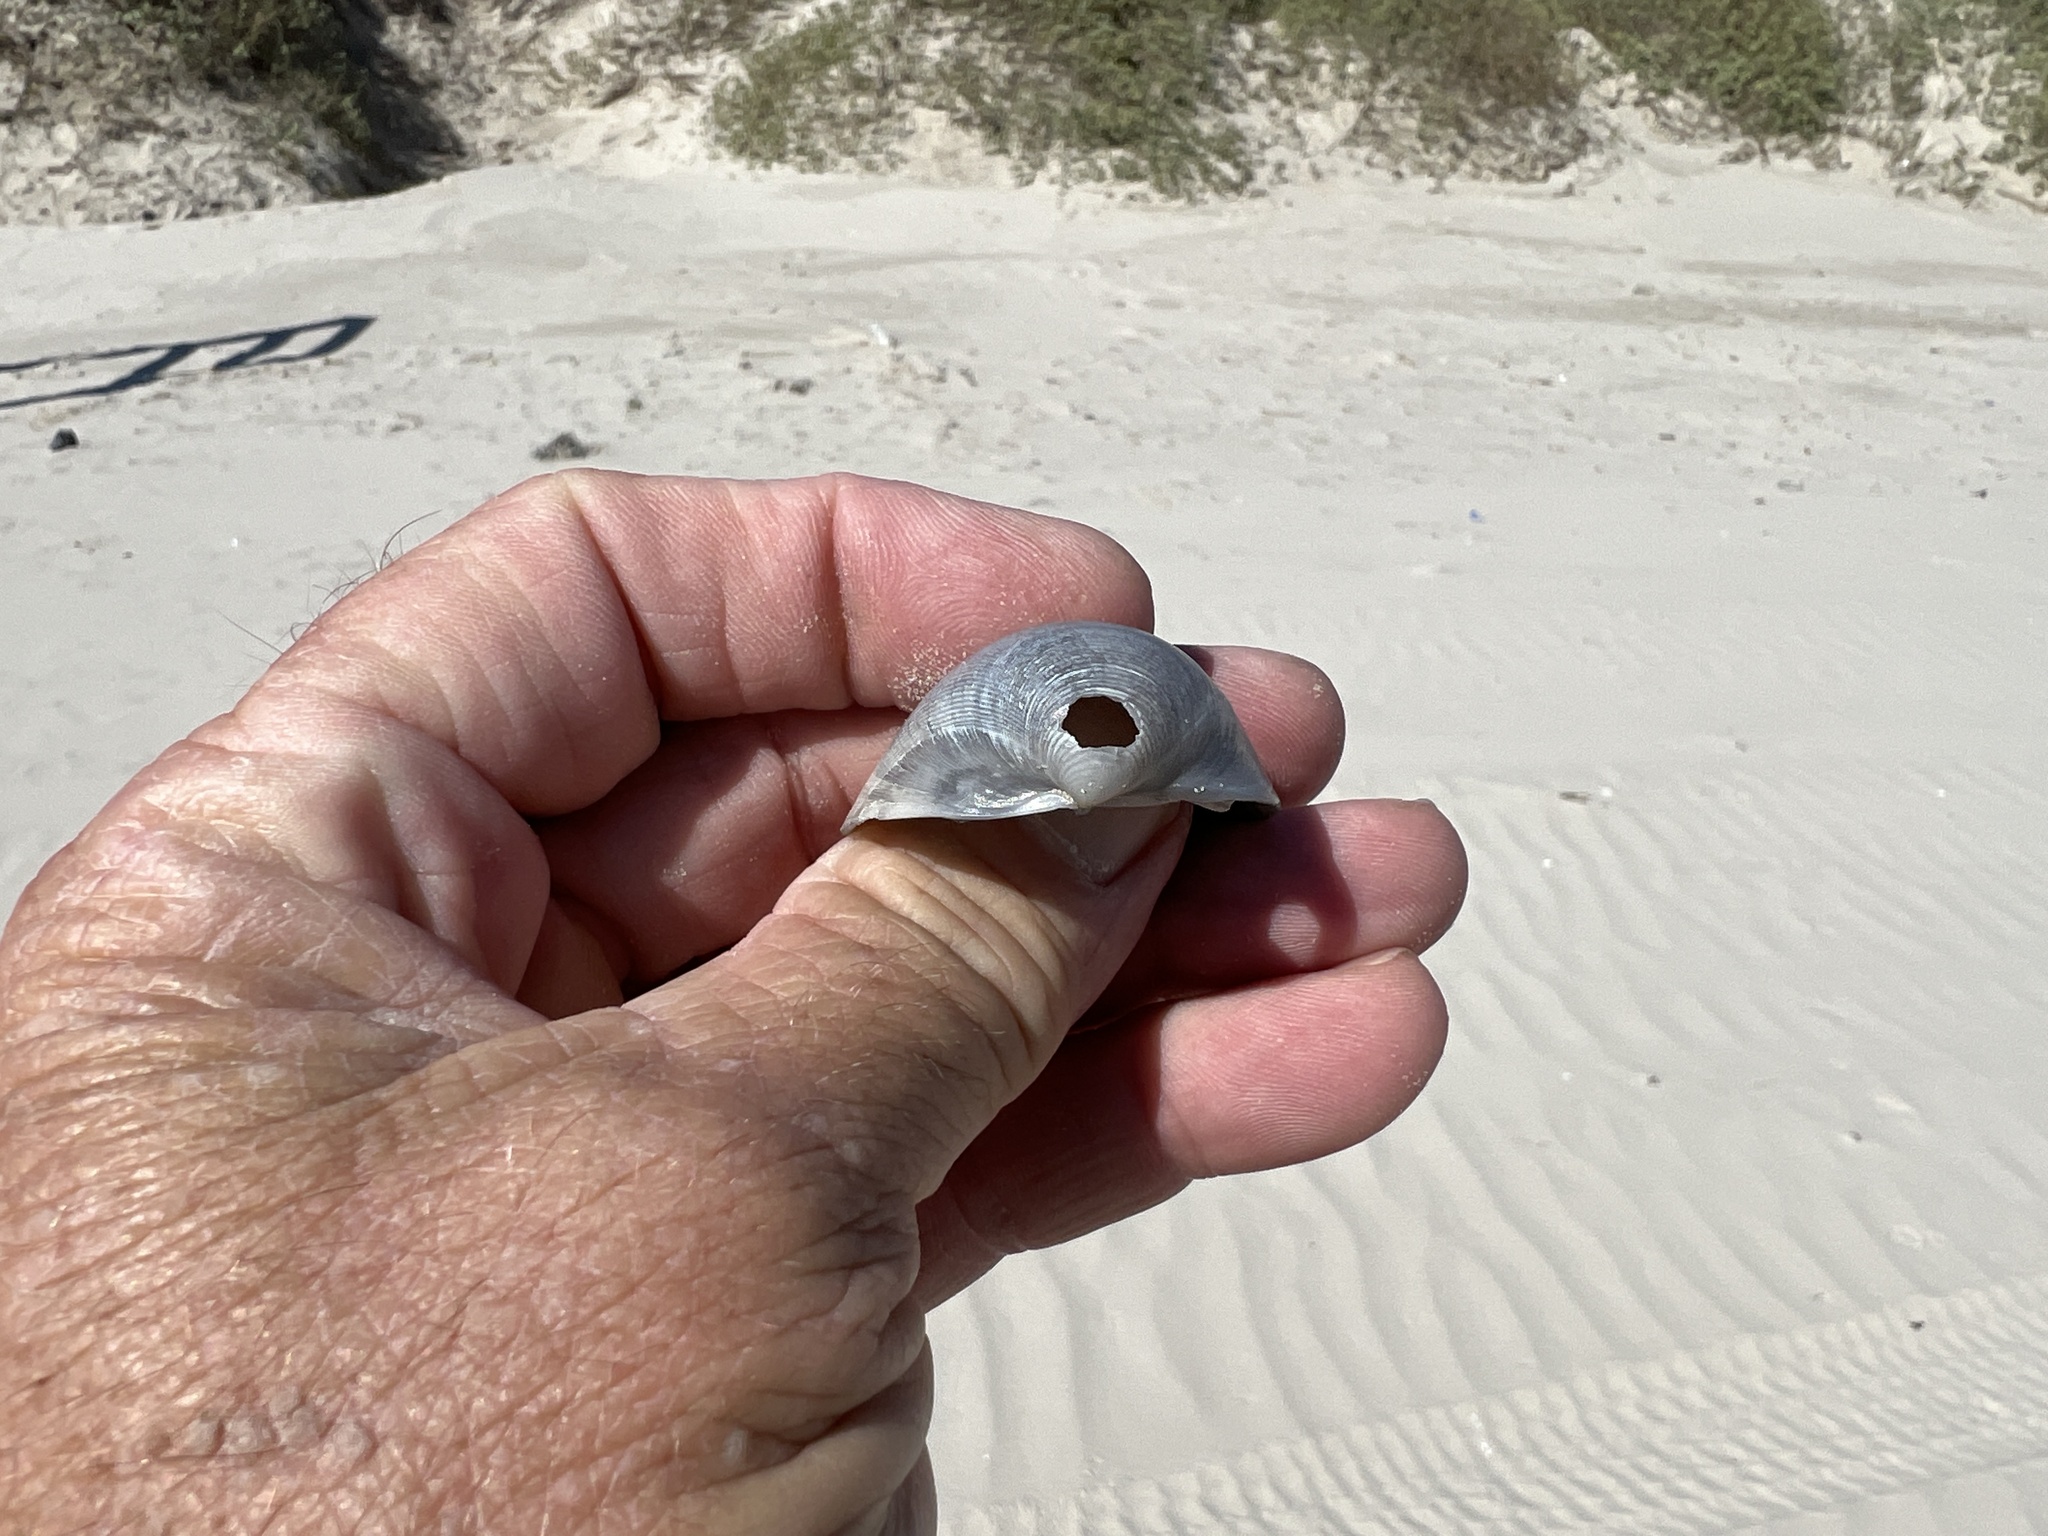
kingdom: Animalia
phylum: Mollusca
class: Bivalvia
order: Cardiida
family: Cardiidae
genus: Laevicardium
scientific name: Laevicardium serratum
